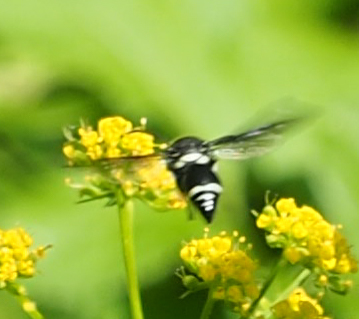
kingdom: Animalia
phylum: Arthropoda
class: Insecta
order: Hymenoptera
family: Vespidae
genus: Eumenes
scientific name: Eumenes fraternus
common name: Fraternal potter wasp
